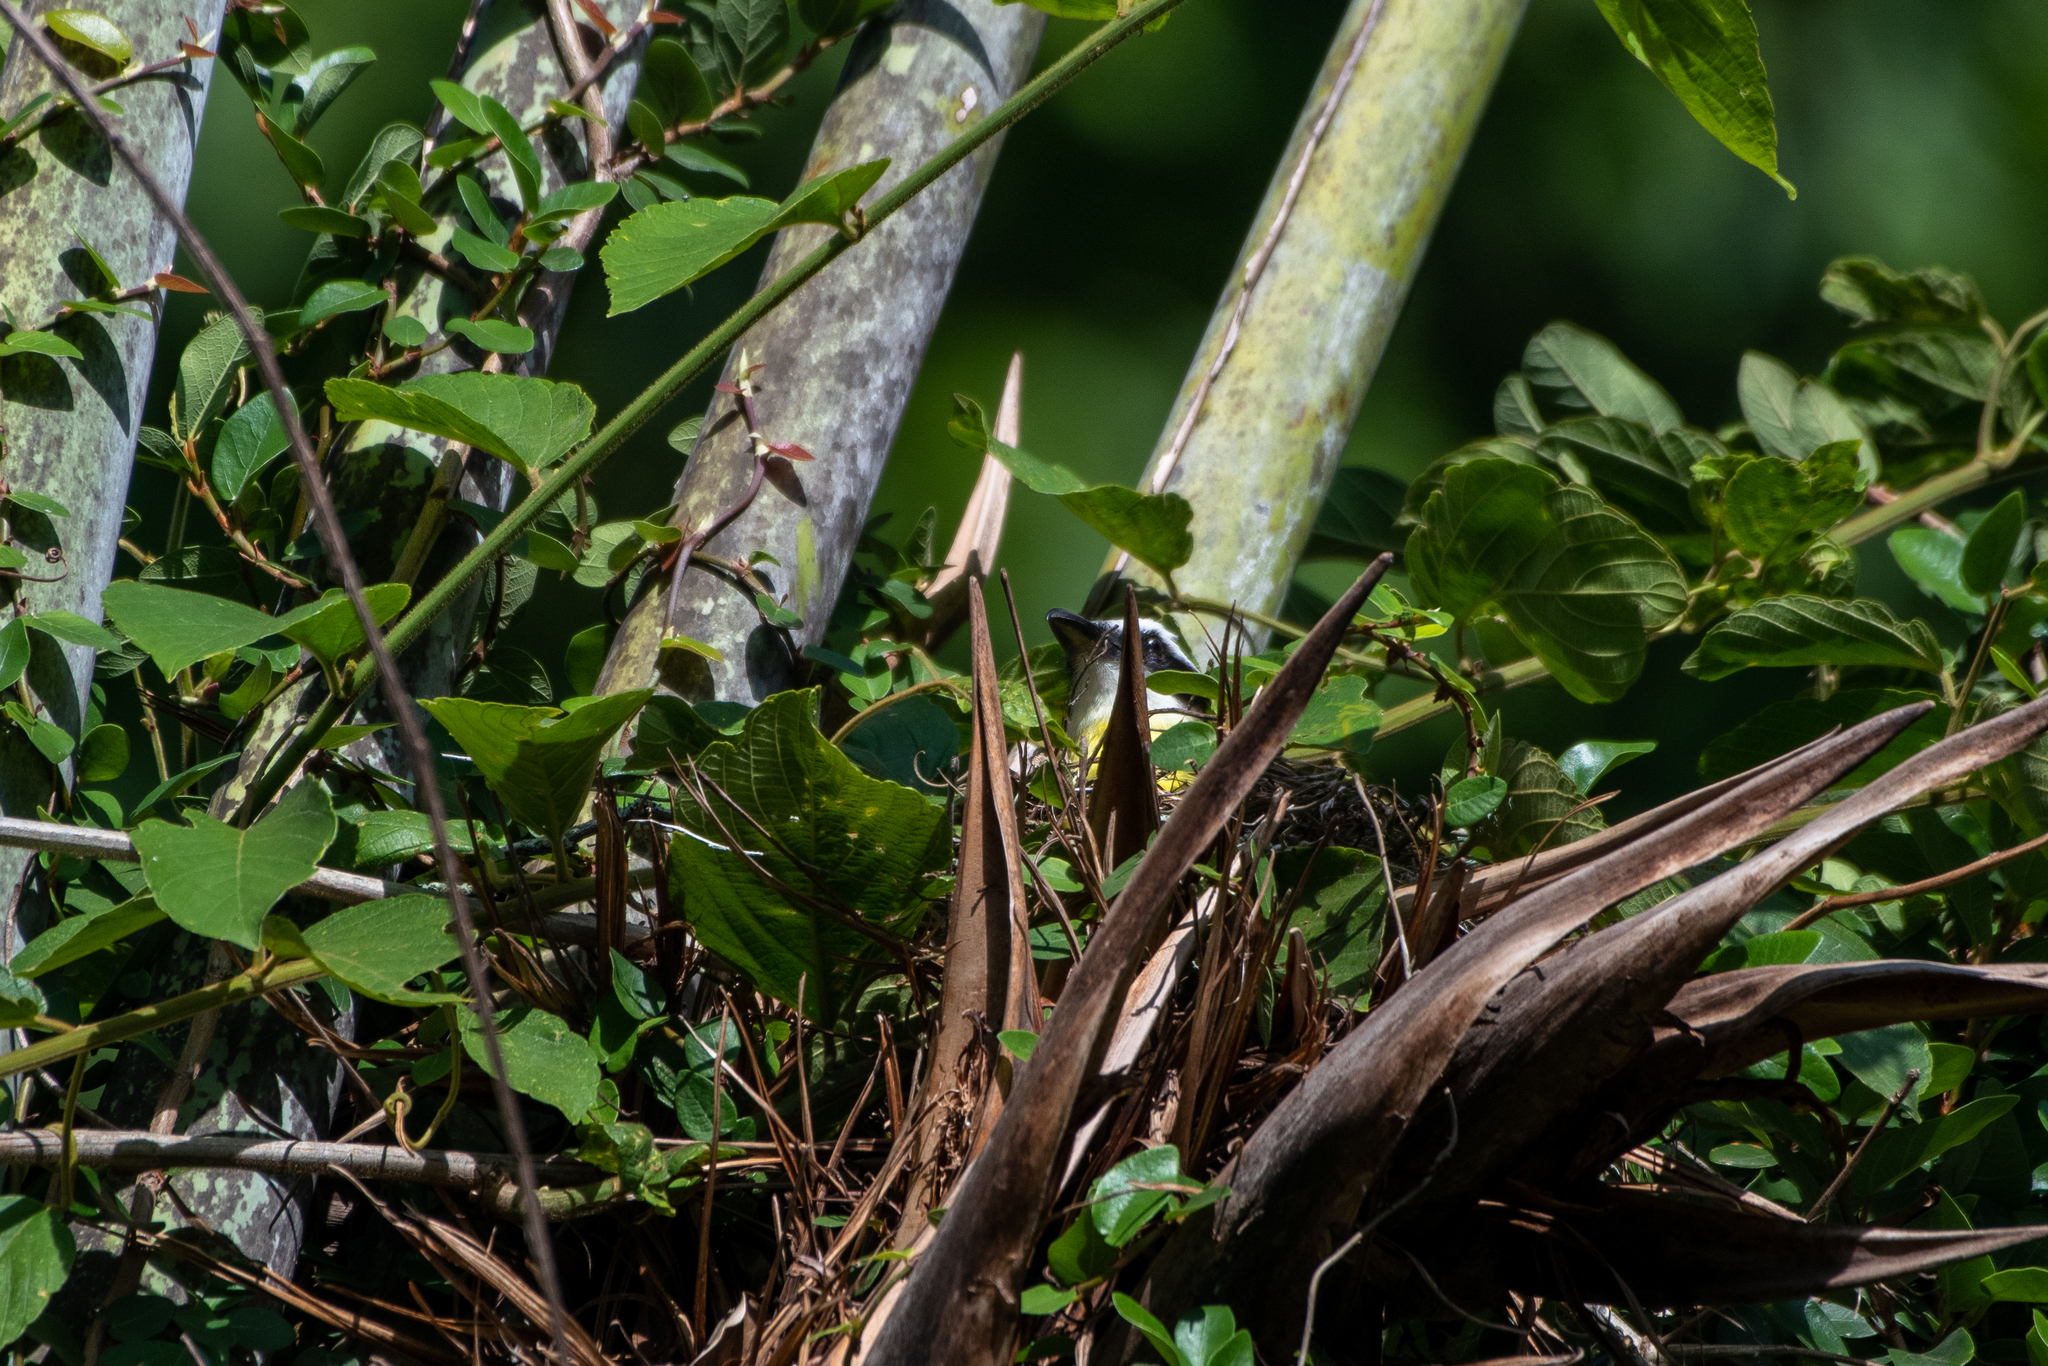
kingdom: Animalia
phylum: Chordata
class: Aves
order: Passeriformes
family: Tyrannidae
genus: Megarynchus
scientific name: Megarynchus pitangua
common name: Boat-billed flycatcher
